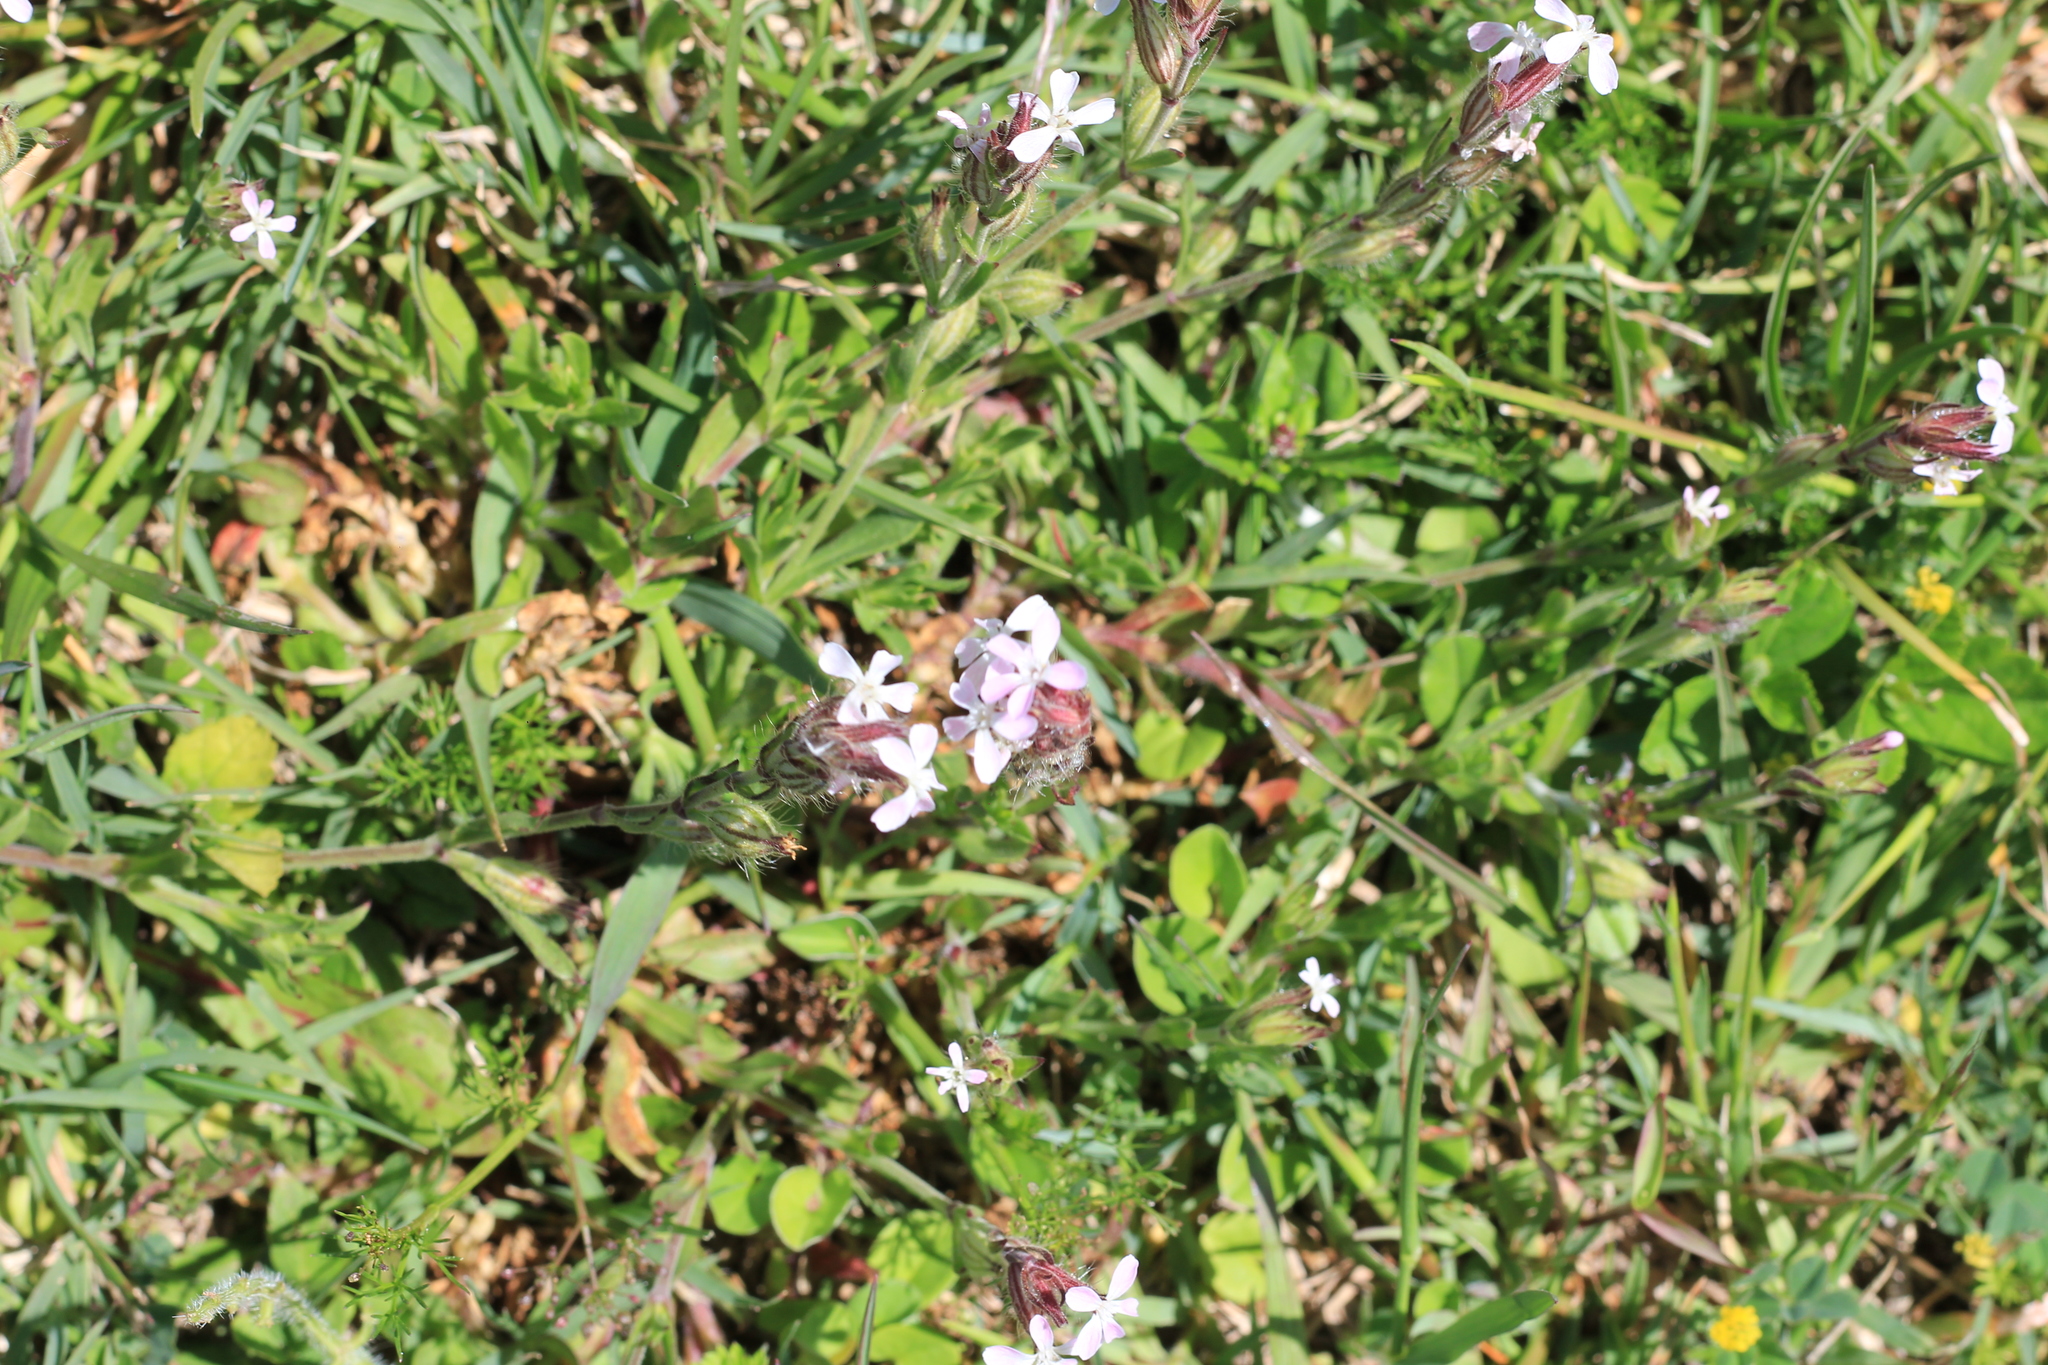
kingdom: Plantae
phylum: Tracheophyta
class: Magnoliopsida
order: Caryophyllales
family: Caryophyllaceae
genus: Silene
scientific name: Silene gallica
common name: Small-flowered catchfly
